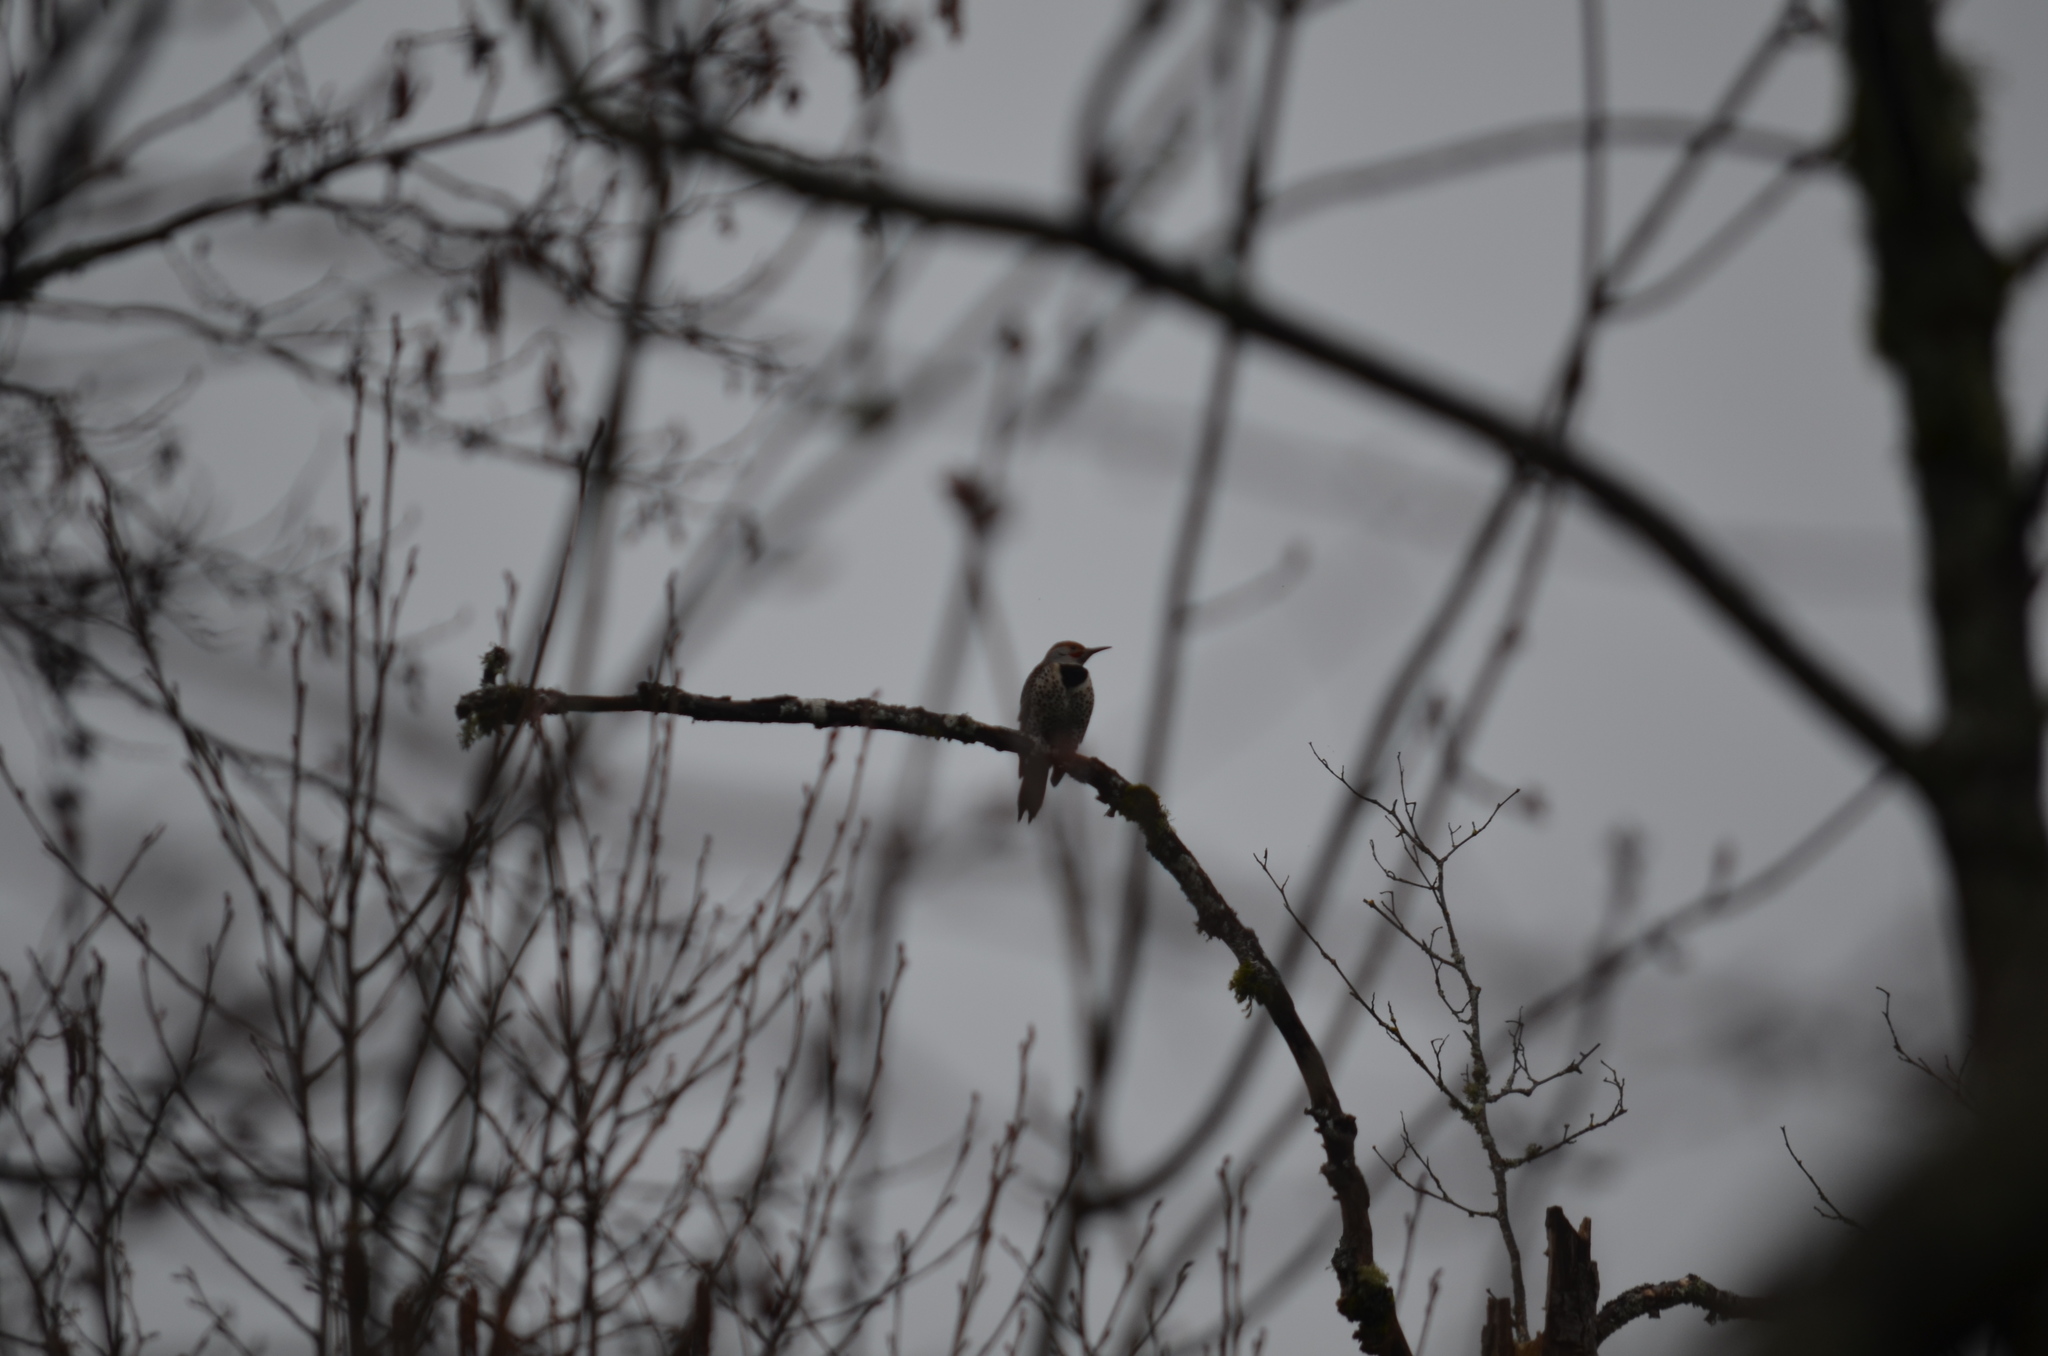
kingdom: Animalia
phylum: Chordata
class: Aves
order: Piciformes
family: Picidae
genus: Colaptes
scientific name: Colaptes auratus
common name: Northern flicker
